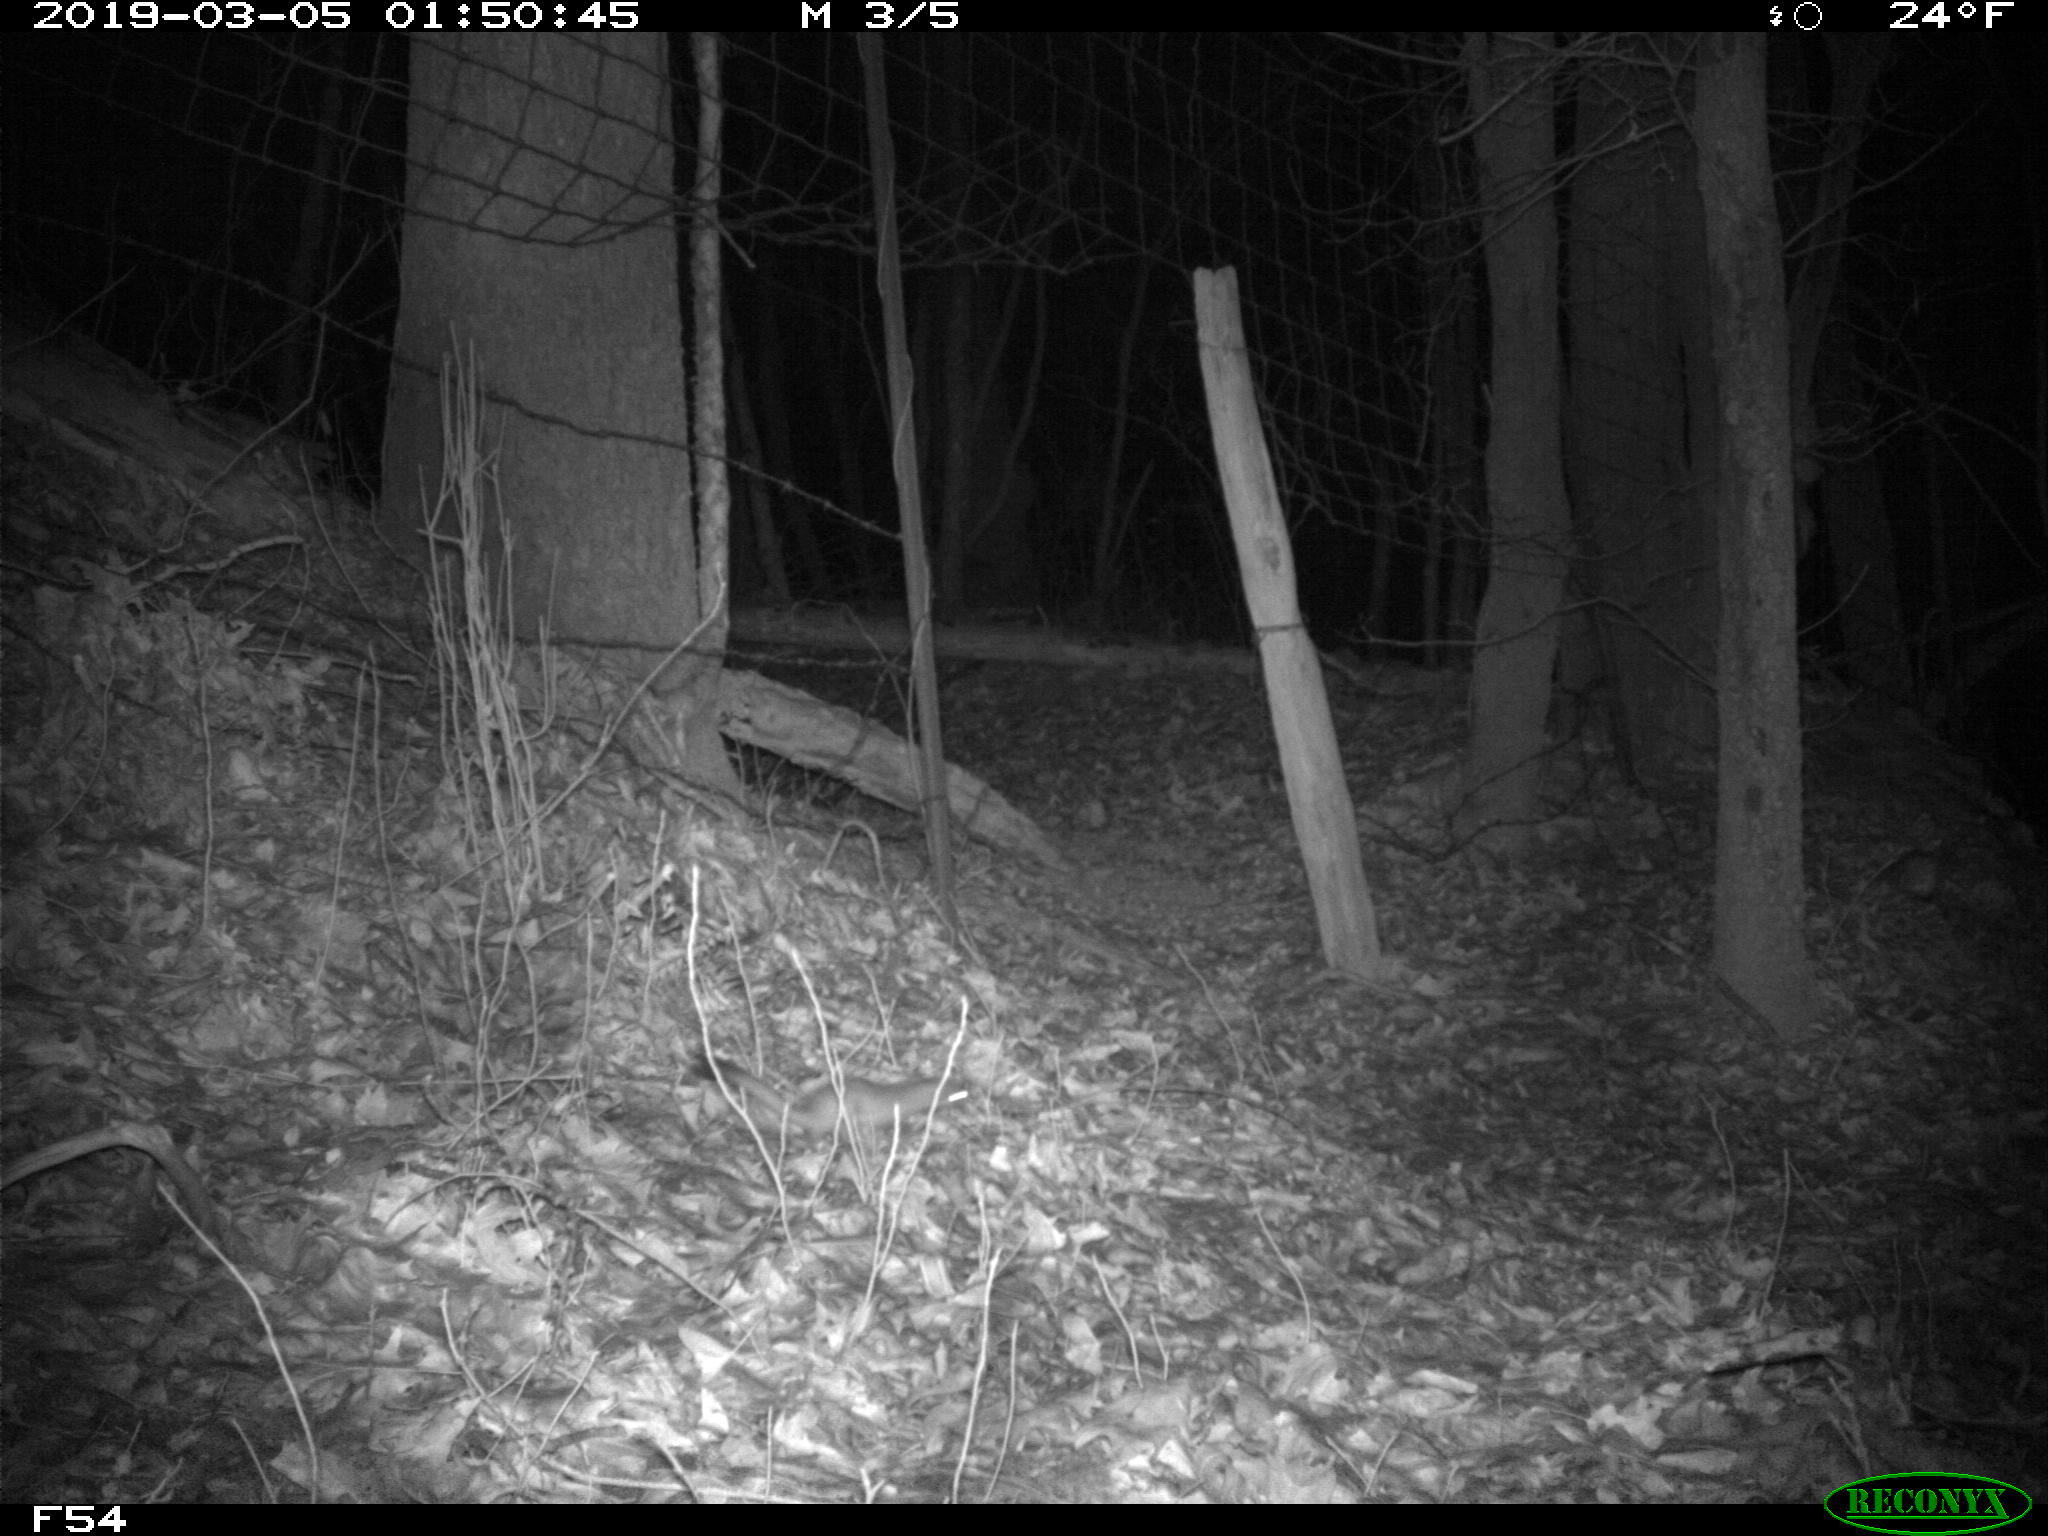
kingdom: Animalia
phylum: Chordata
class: Mammalia
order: Carnivora
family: Mustelidae
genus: Mustela
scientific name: Mustela
